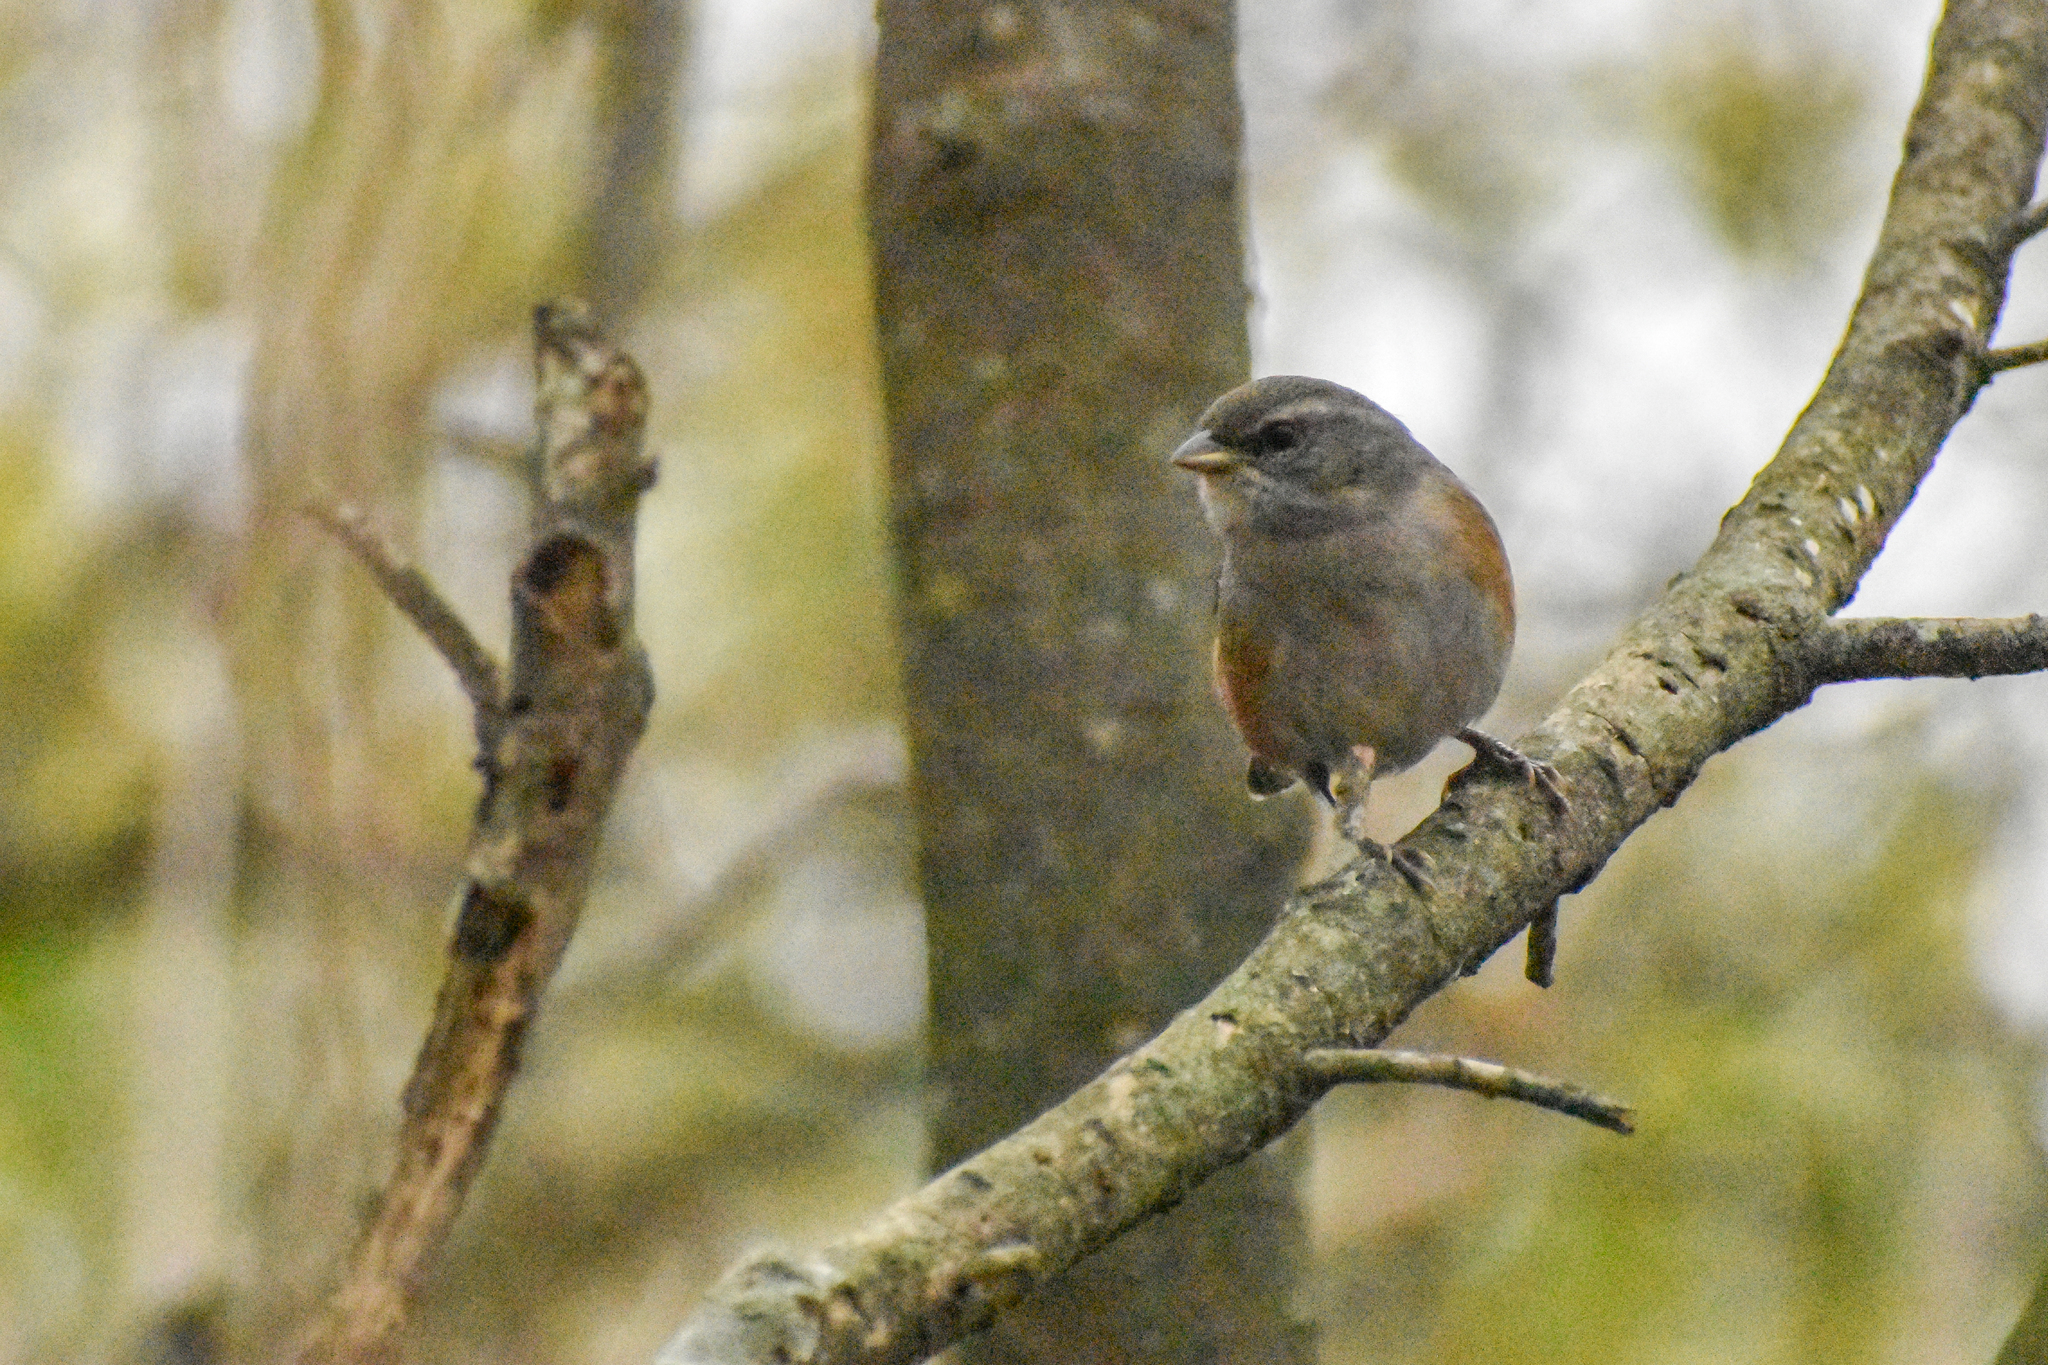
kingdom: Animalia
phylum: Chordata
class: Aves
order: Passeriformes
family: Thraupidae
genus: Microspingus
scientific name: Microspingus cabanisi
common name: Gray-throated warbling-finch
